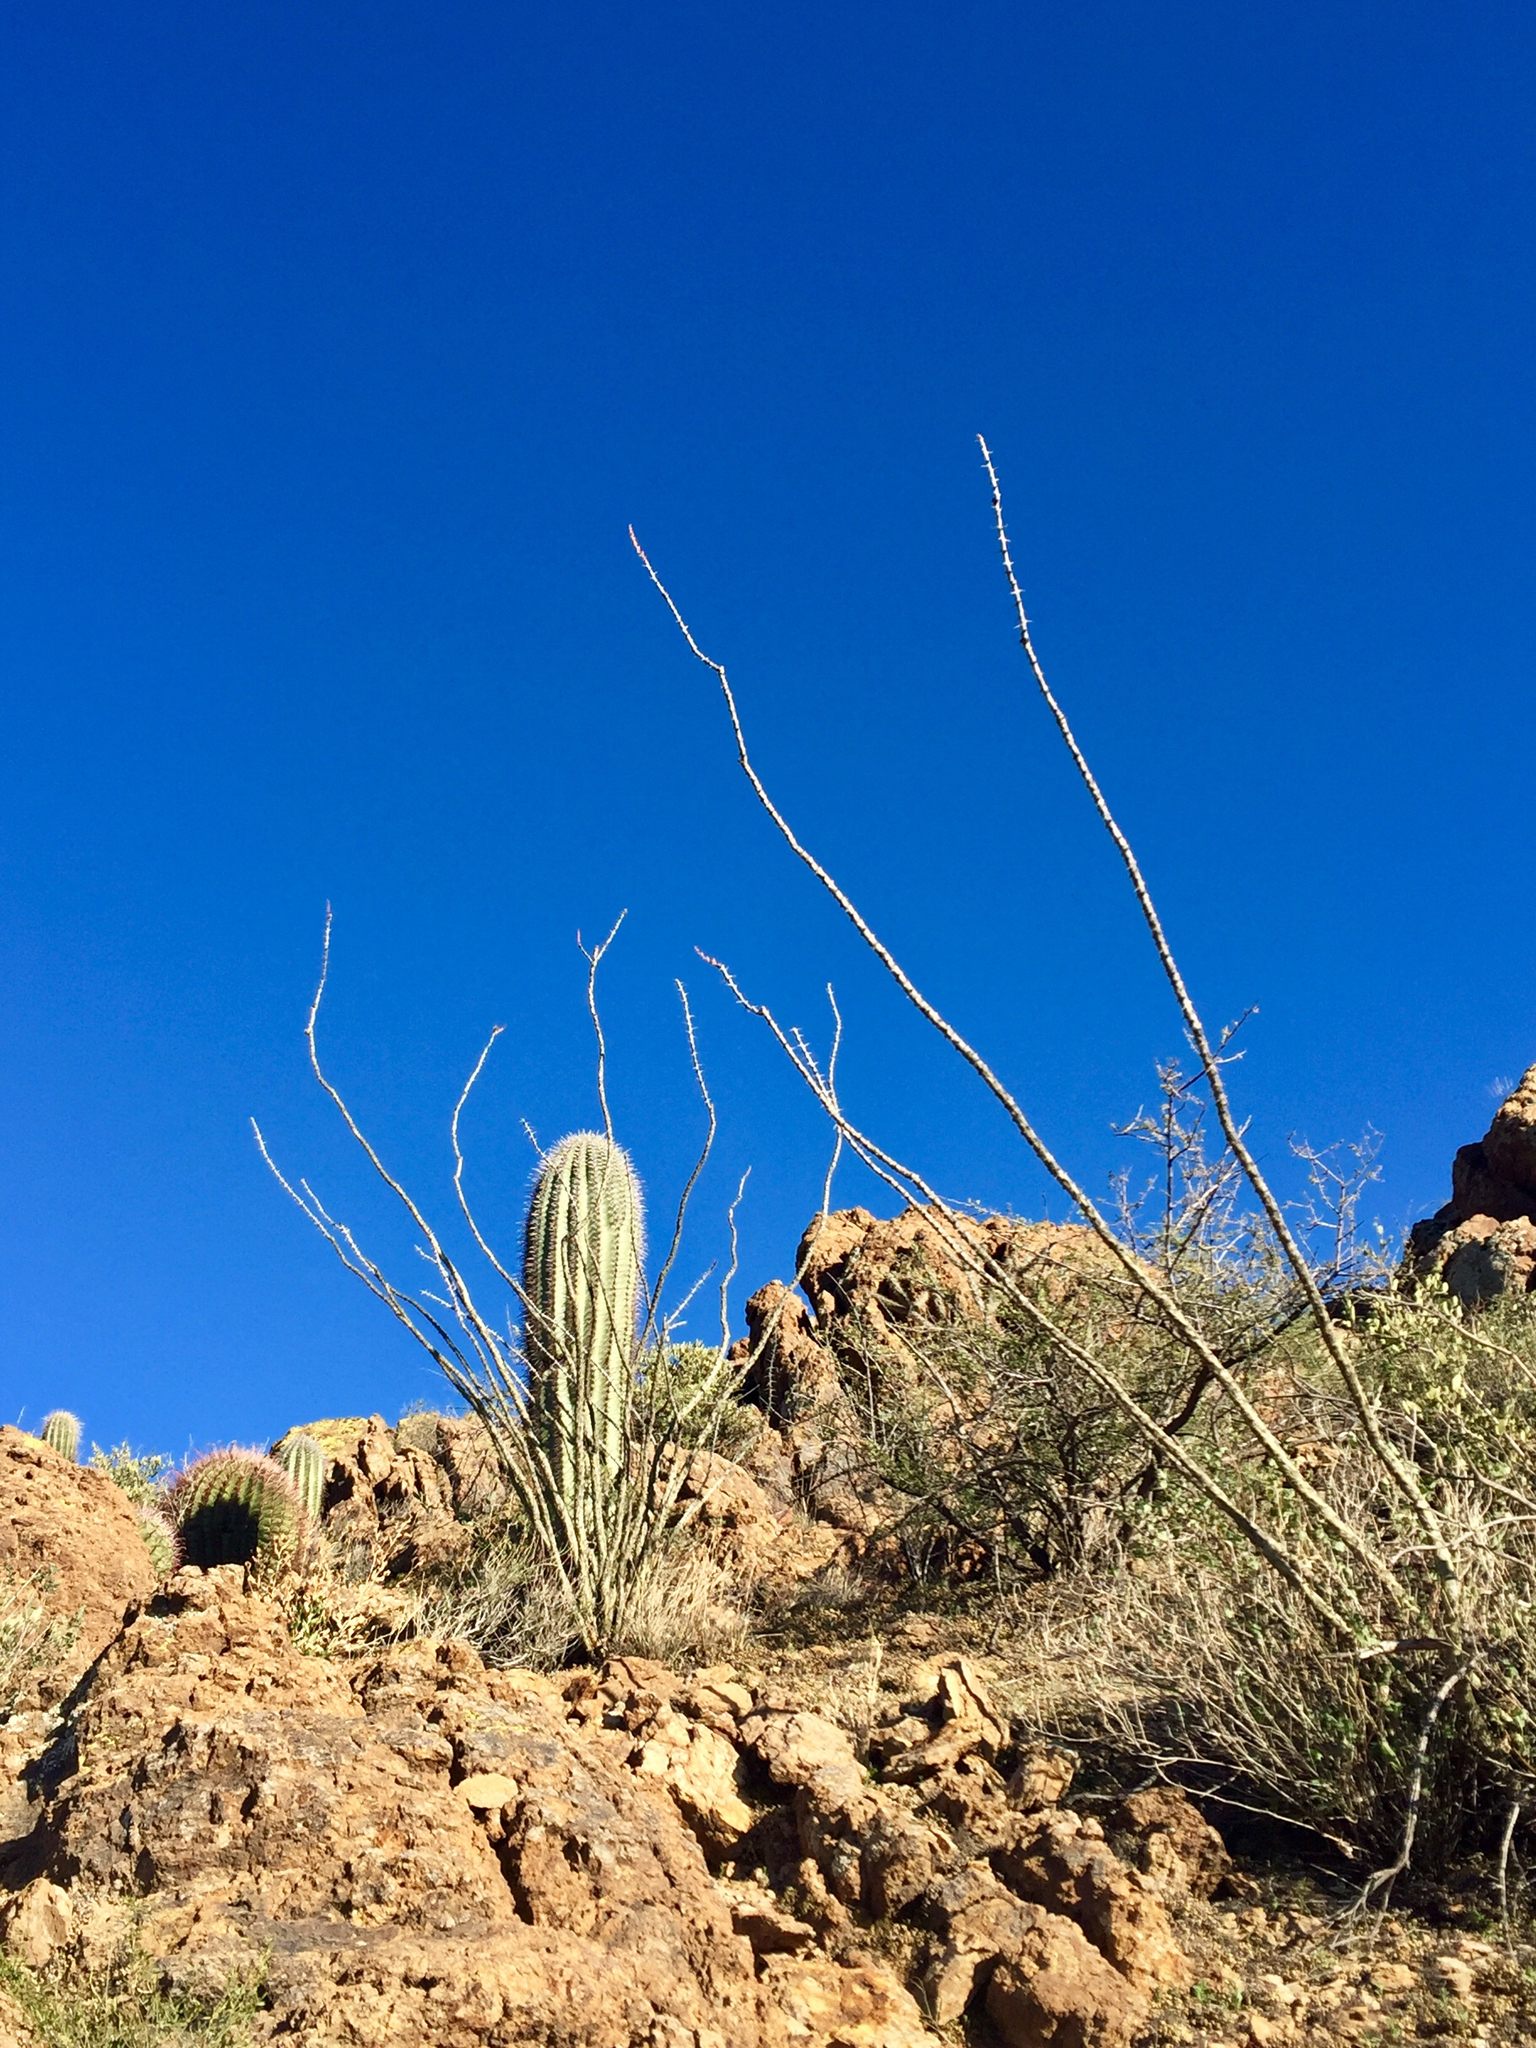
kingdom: Plantae
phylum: Tracheophyta
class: Magnoliopsida
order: Ericales
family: Fouquieriaceae
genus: Fouquieria
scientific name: Fouquieria splendens
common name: Vine-cactus
